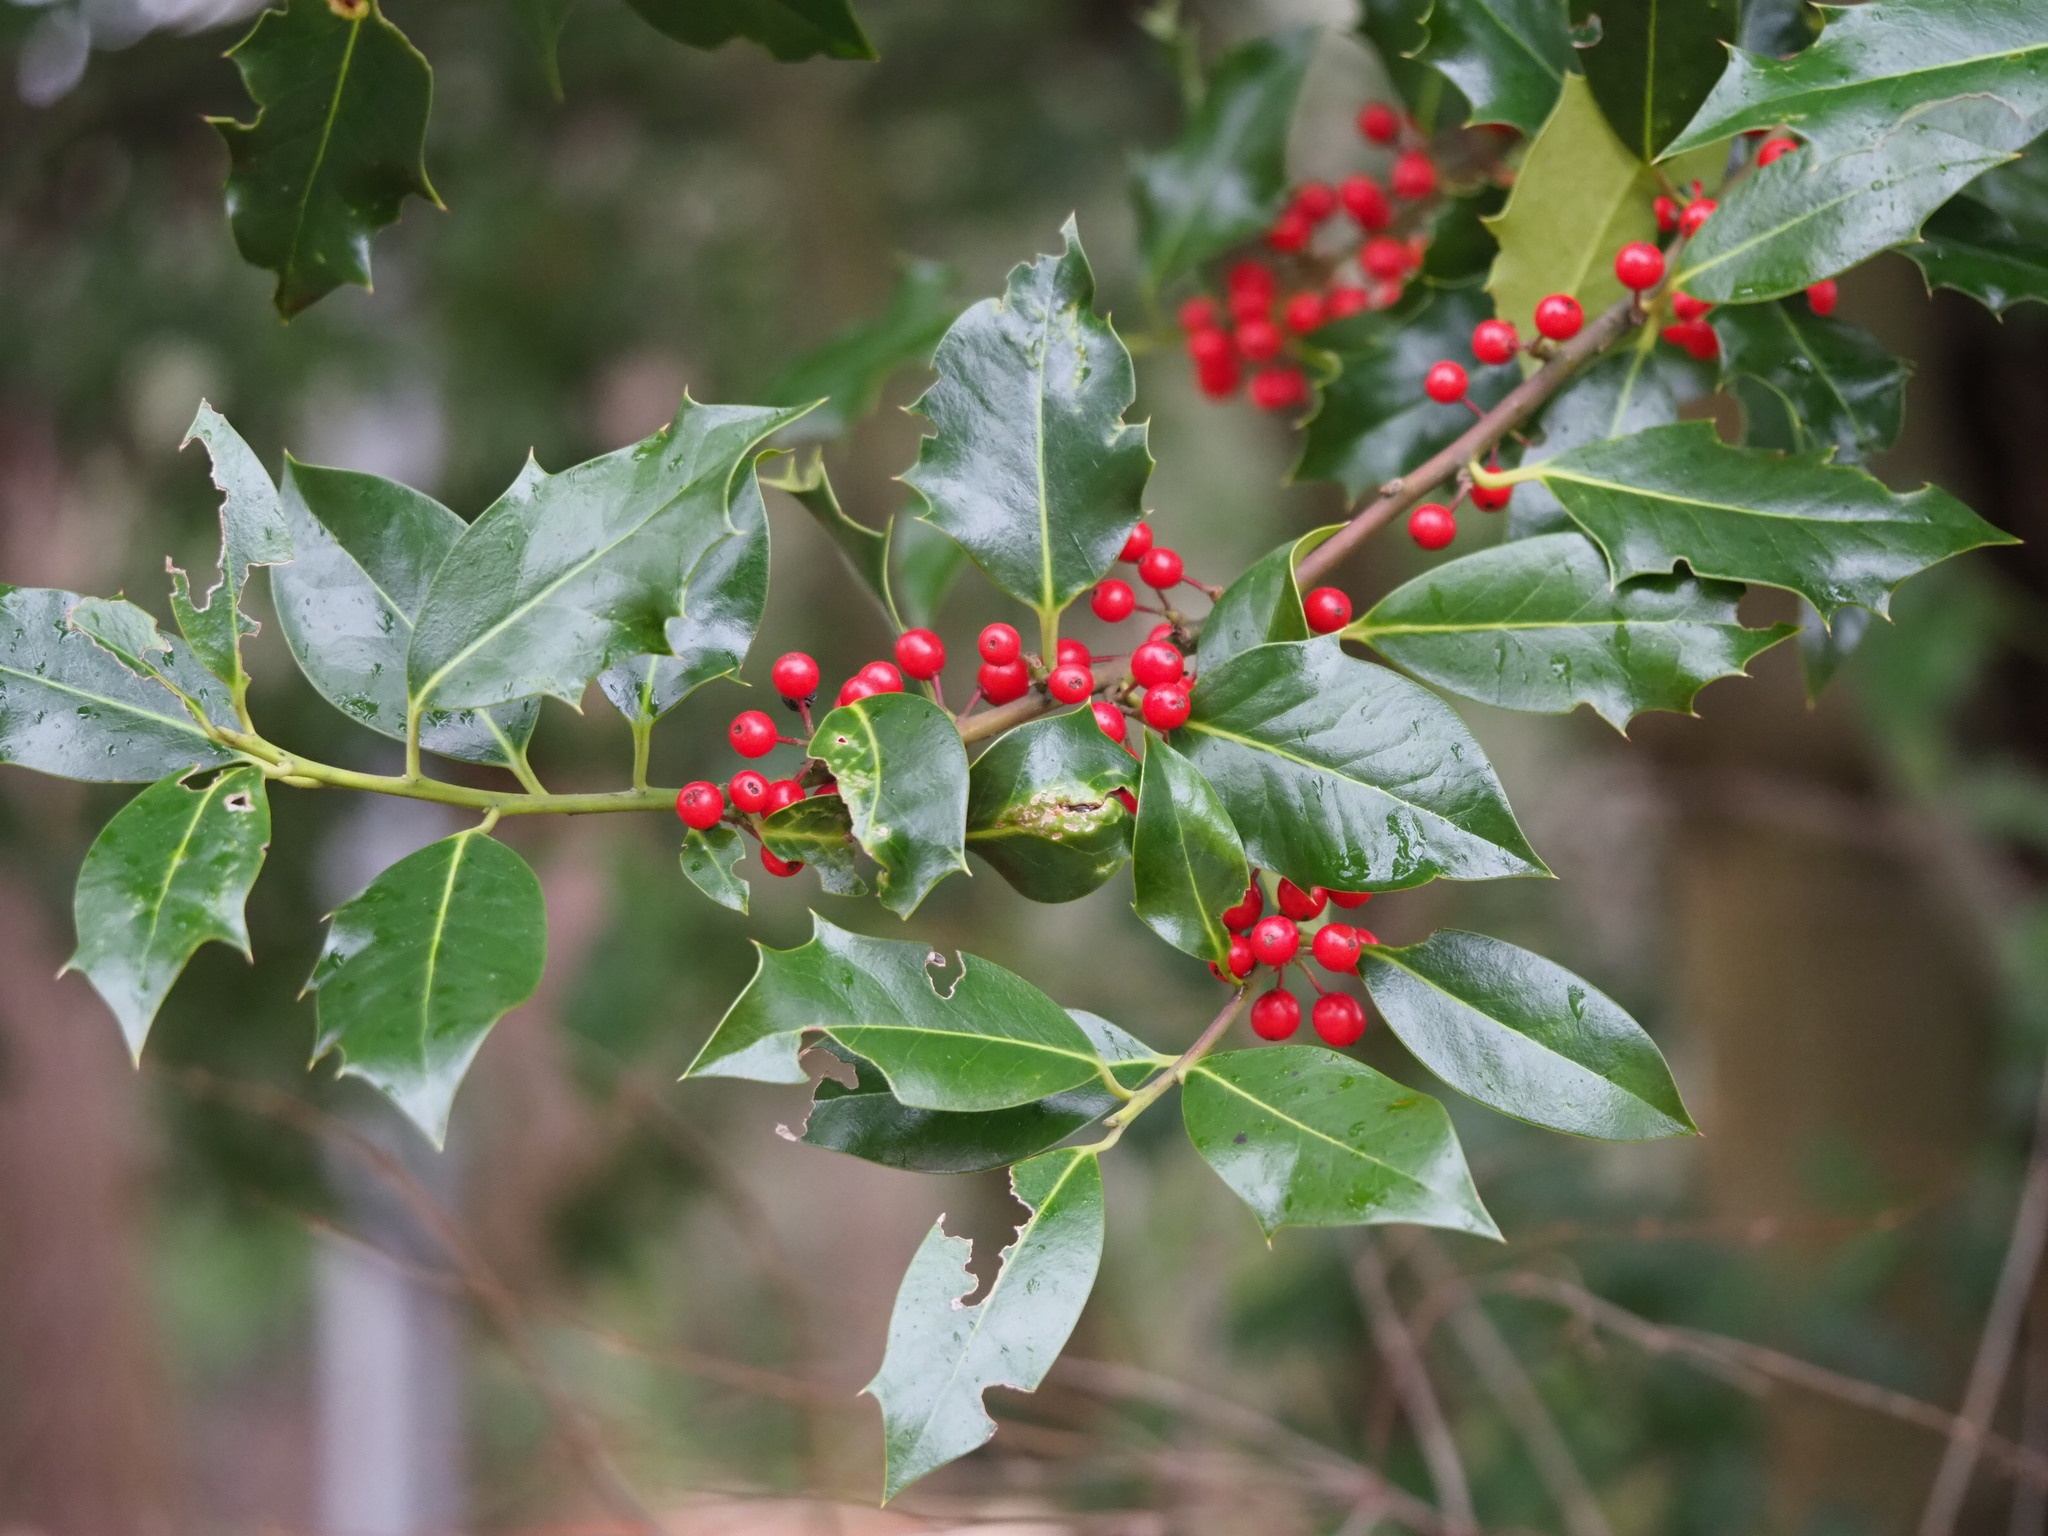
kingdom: Plantae
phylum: Tracheophyta
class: Magnoliopsida
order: Aquifoliales
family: Aquifoliaceae
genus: Ilex
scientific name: Ilex aquifolium
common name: English holly
